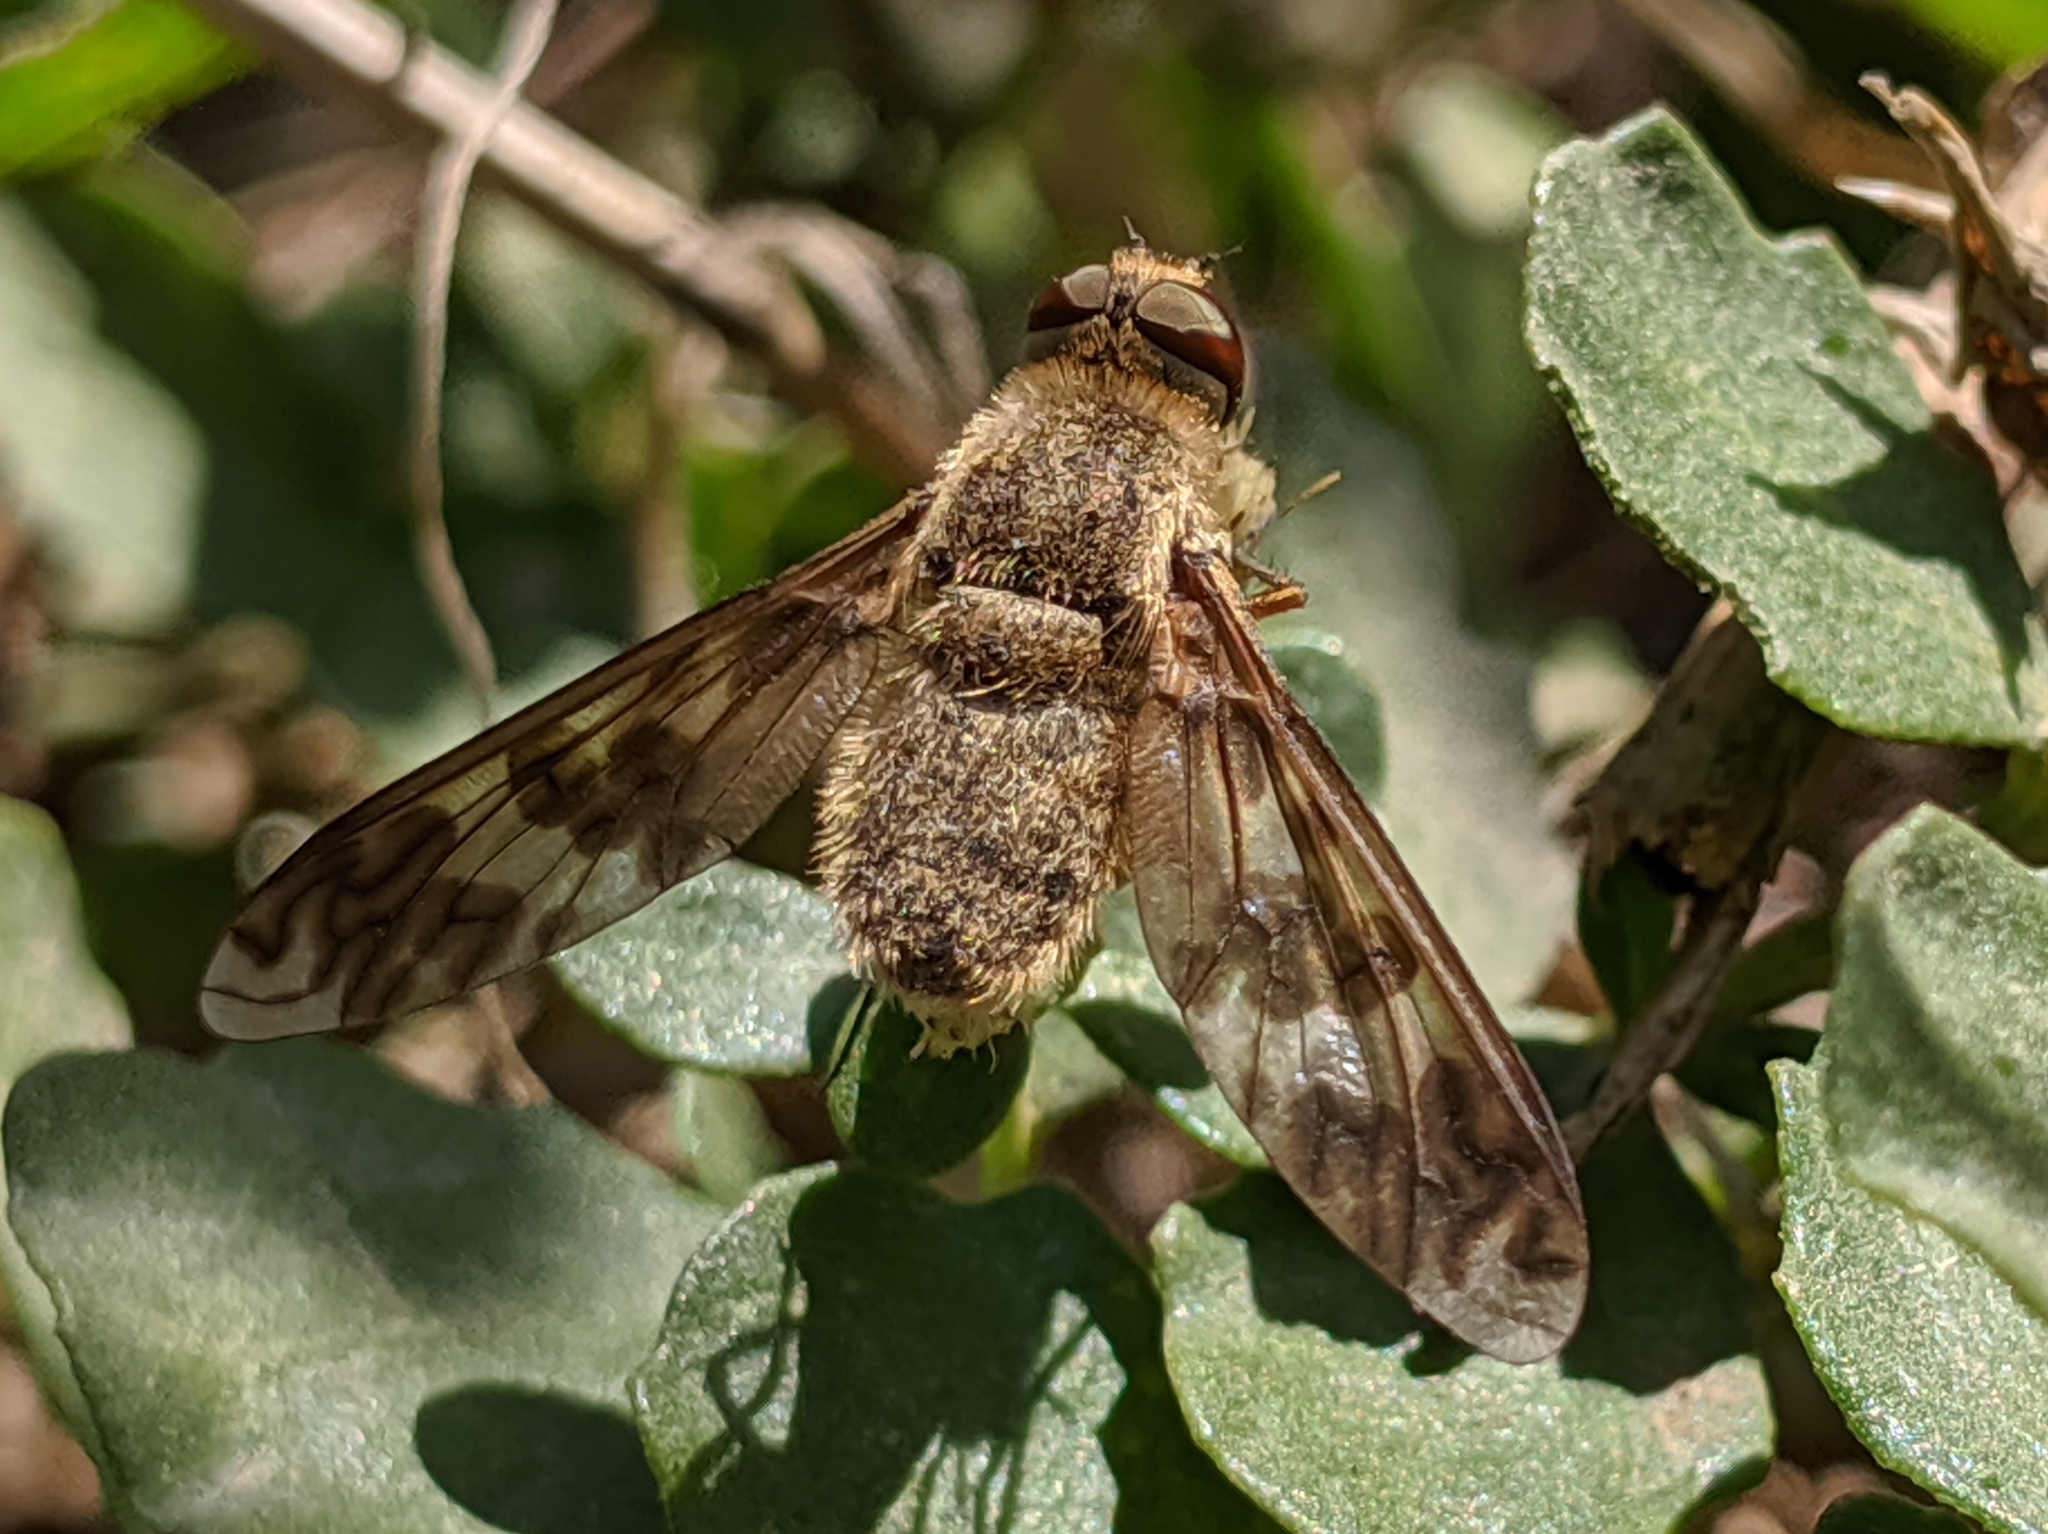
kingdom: Animalia
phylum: Arthropoda
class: Insecta
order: Diptera
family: Bombyliidae
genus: Dipalta
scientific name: Dipalta serpentina
